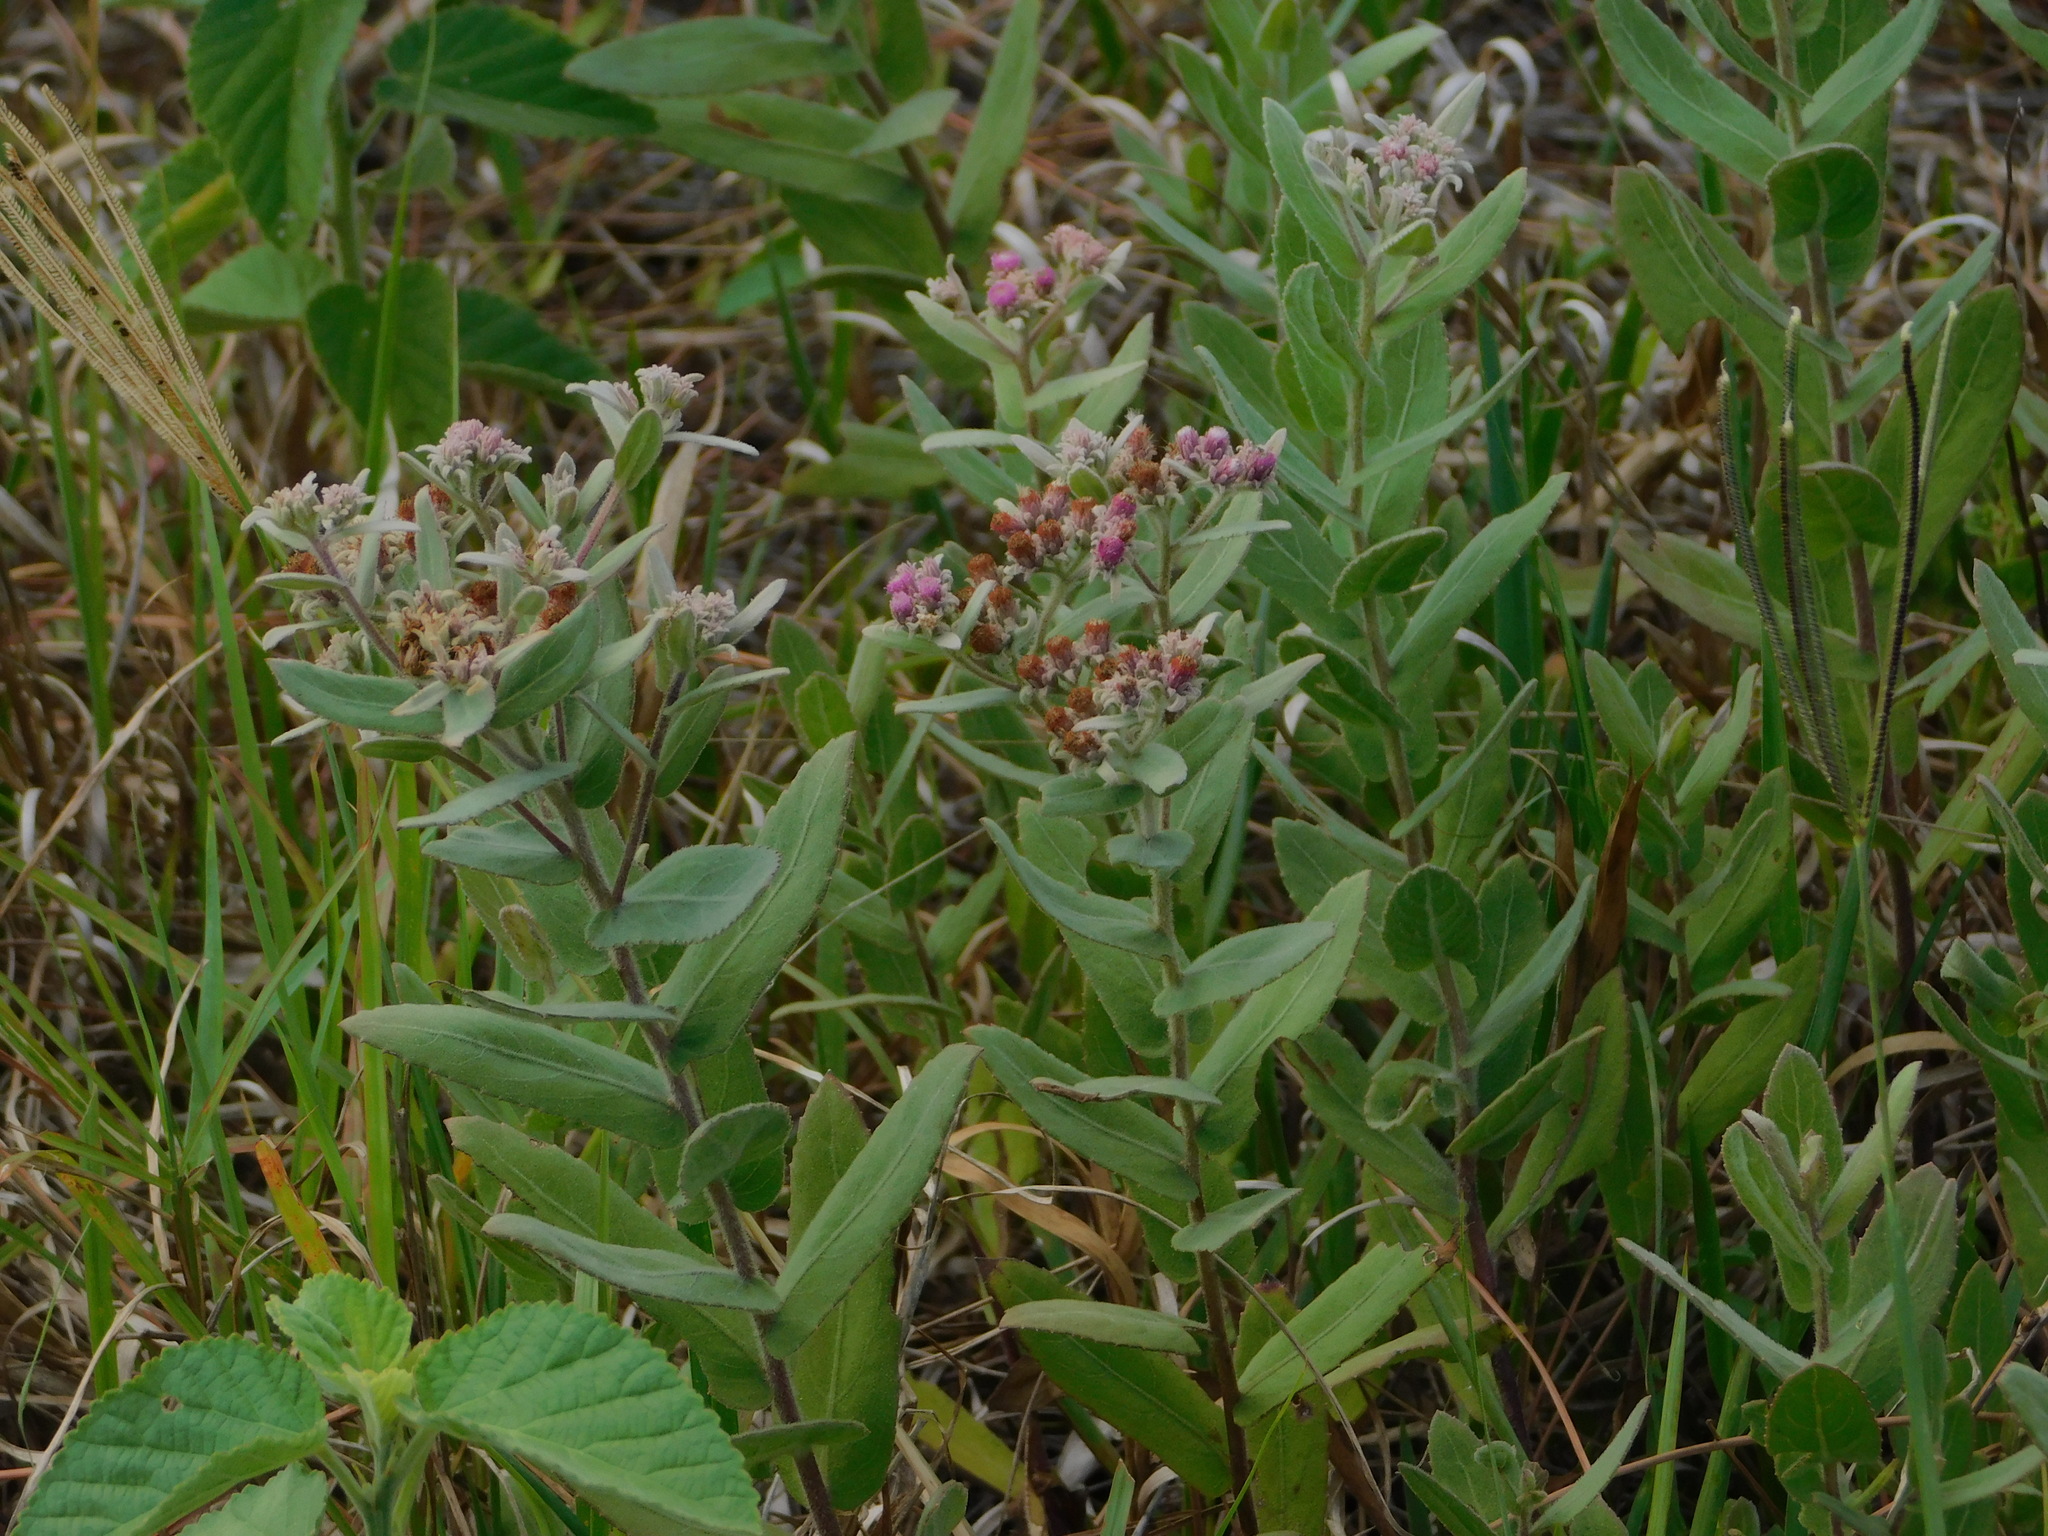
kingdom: Plantae
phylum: Tracheophyta
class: Magnoliopsida
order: Asterales
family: Asteraceae
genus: Pluchea
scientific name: Pluchea baccharis
